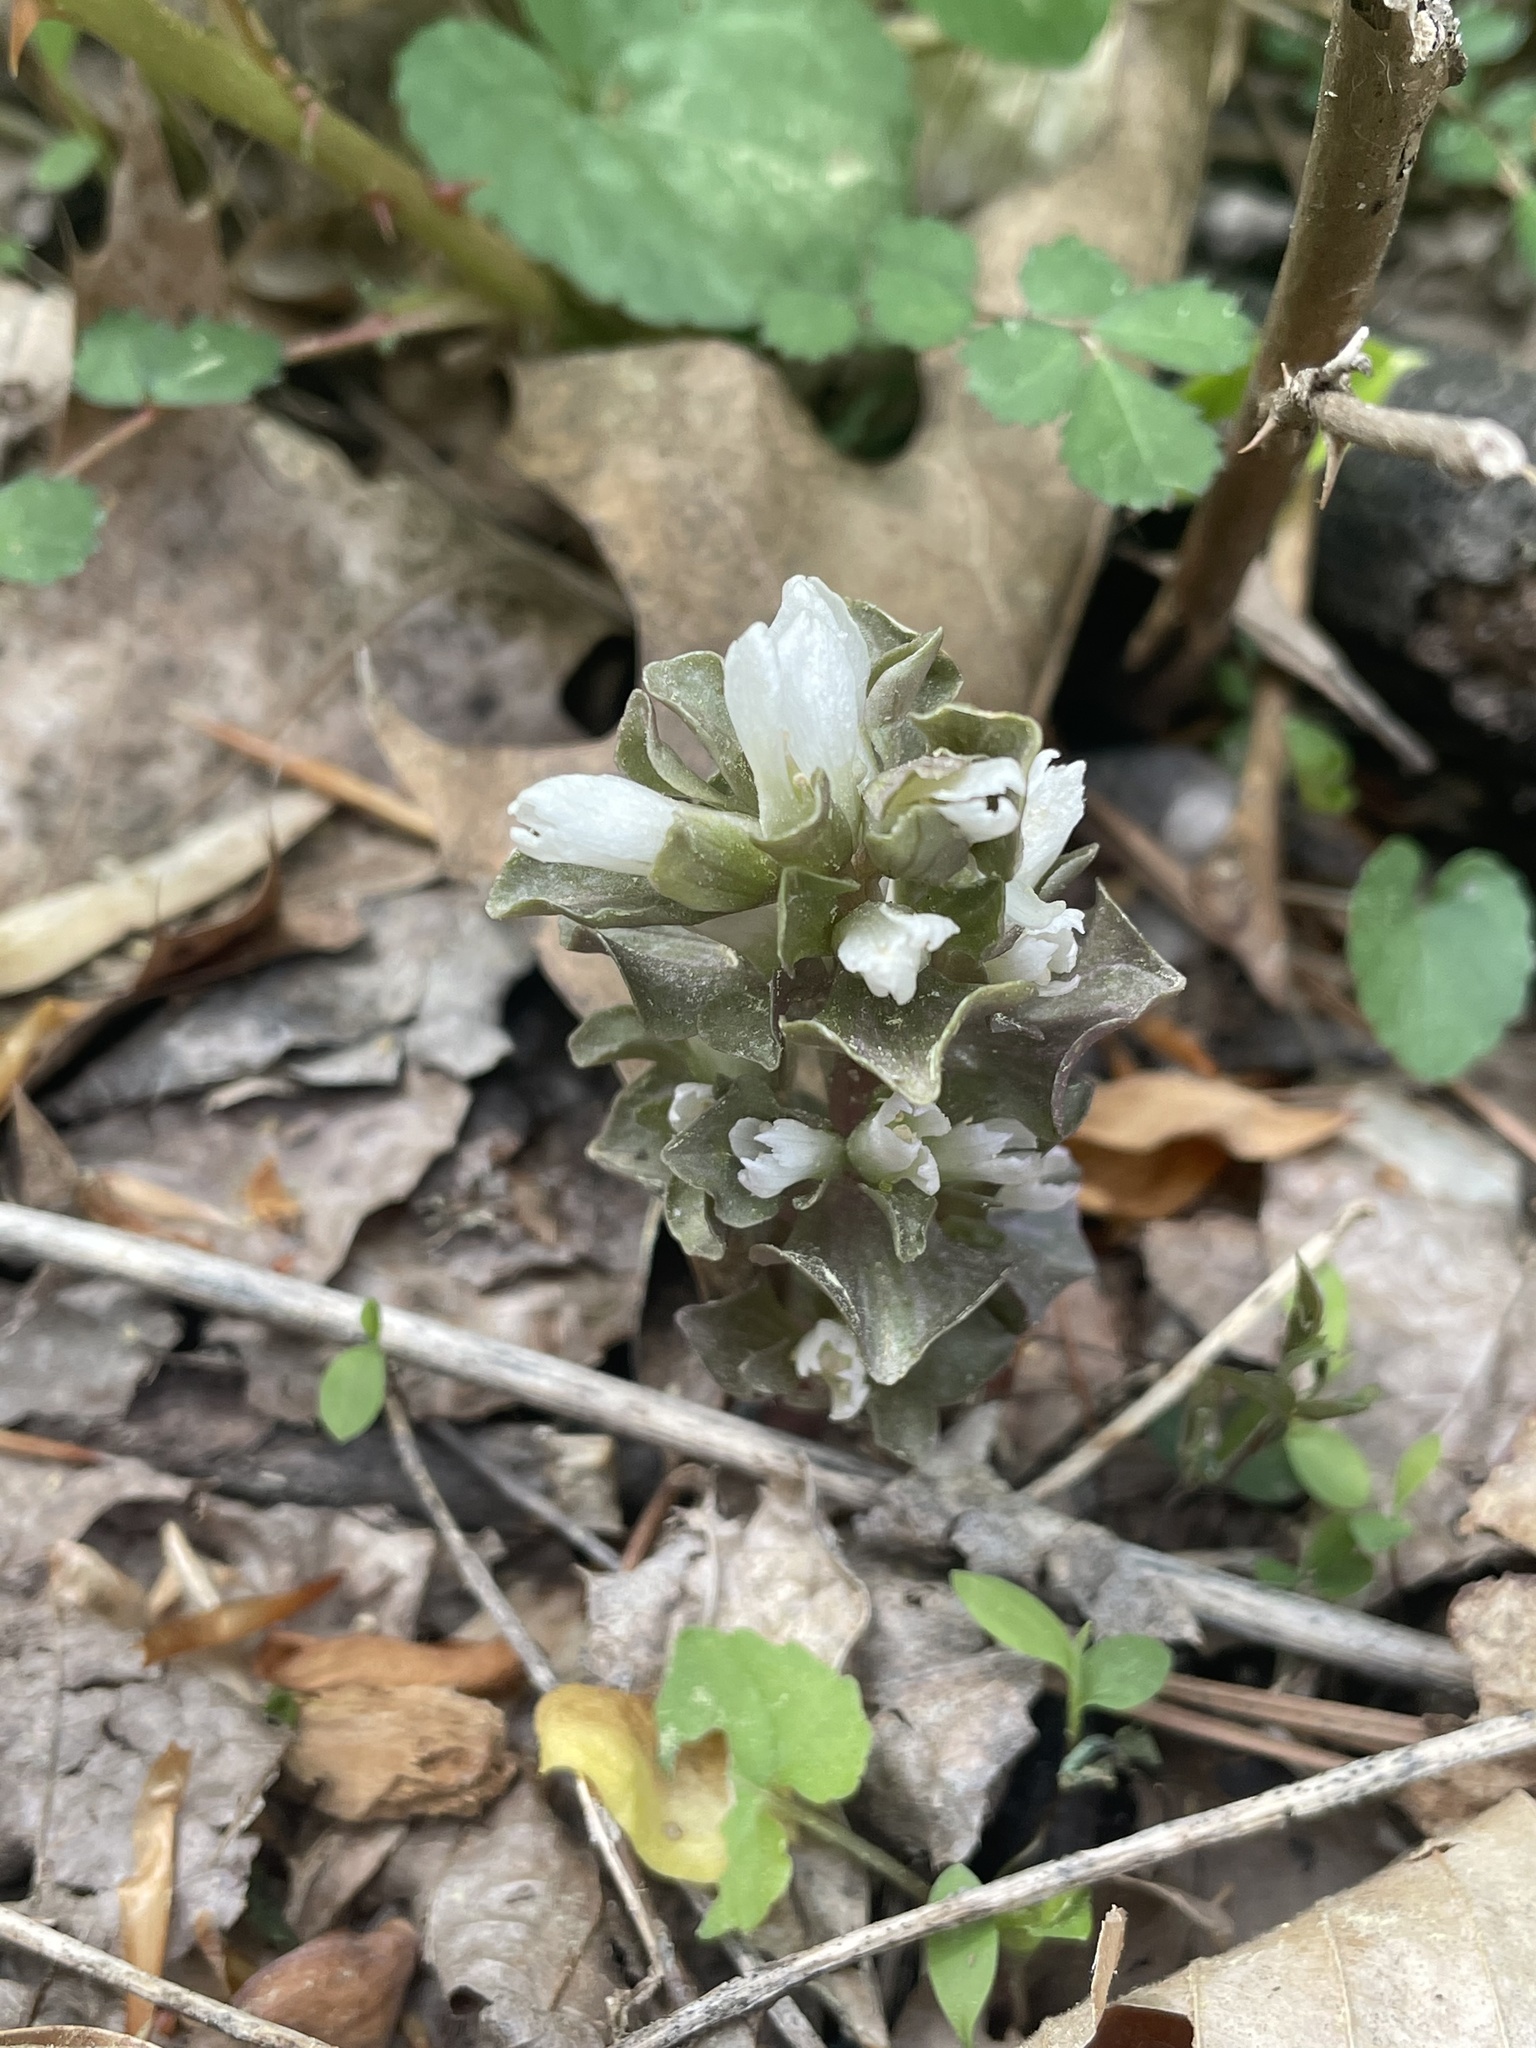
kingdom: Plantae
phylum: Tracheophyta
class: Magnoliopsida
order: Gentianales
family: Gentianaceae
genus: Obolaria
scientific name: Obolaria virginica
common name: Pennywort
